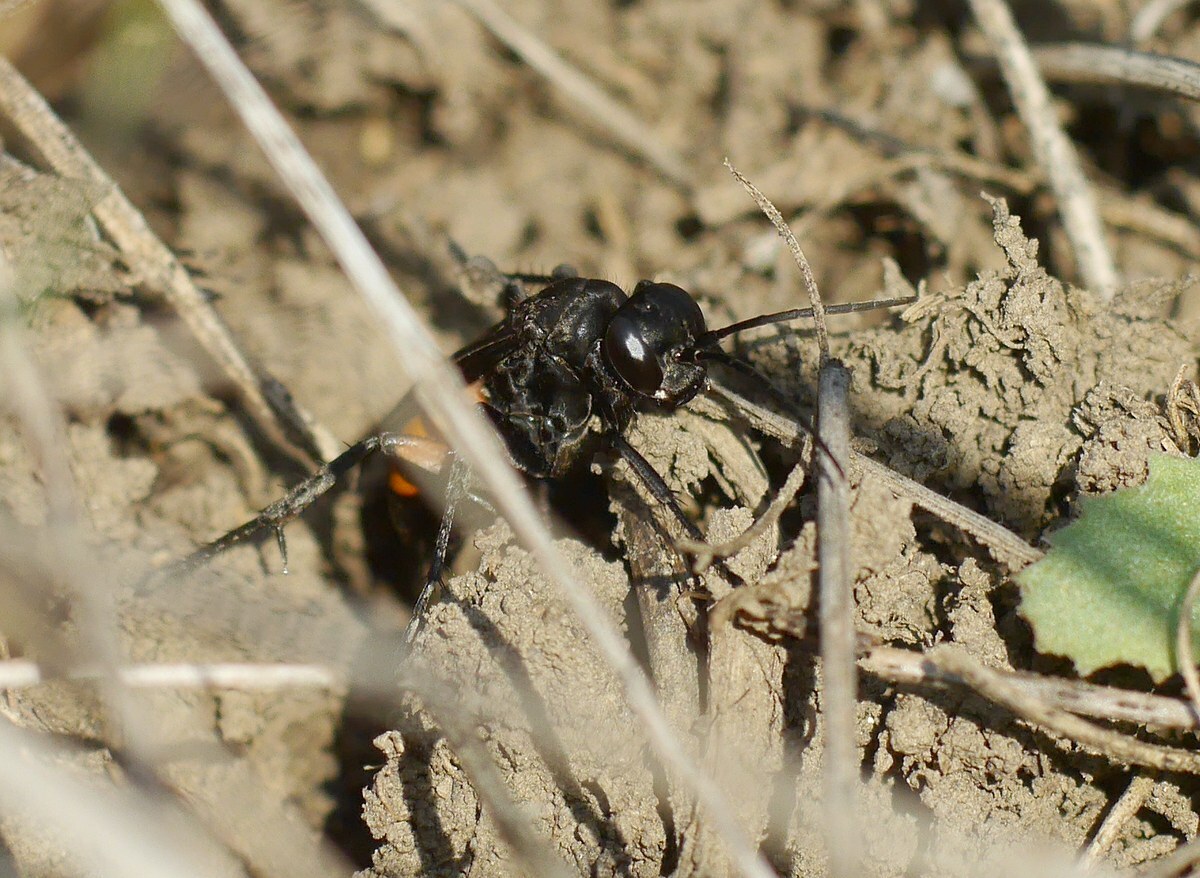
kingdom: Animalia
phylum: Arthropoda
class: Insecta
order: Hymenoptera
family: Pompilidae
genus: Anoplius
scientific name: Anoplius viaticus
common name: Black banded spider wasp
